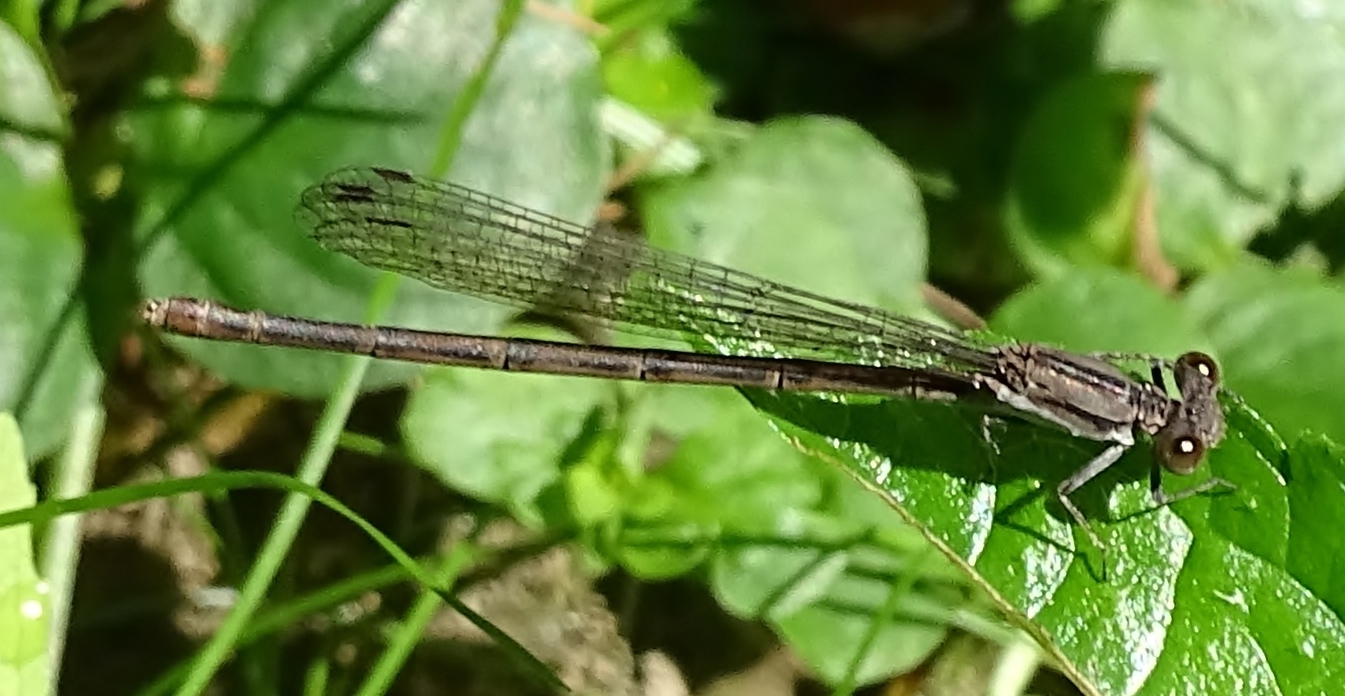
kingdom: Animalia
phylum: Arthropoda
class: Insecta
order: Odonata
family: Coenagrionidae
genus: Argia
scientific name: Argia fumipennis
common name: Variable dancer
